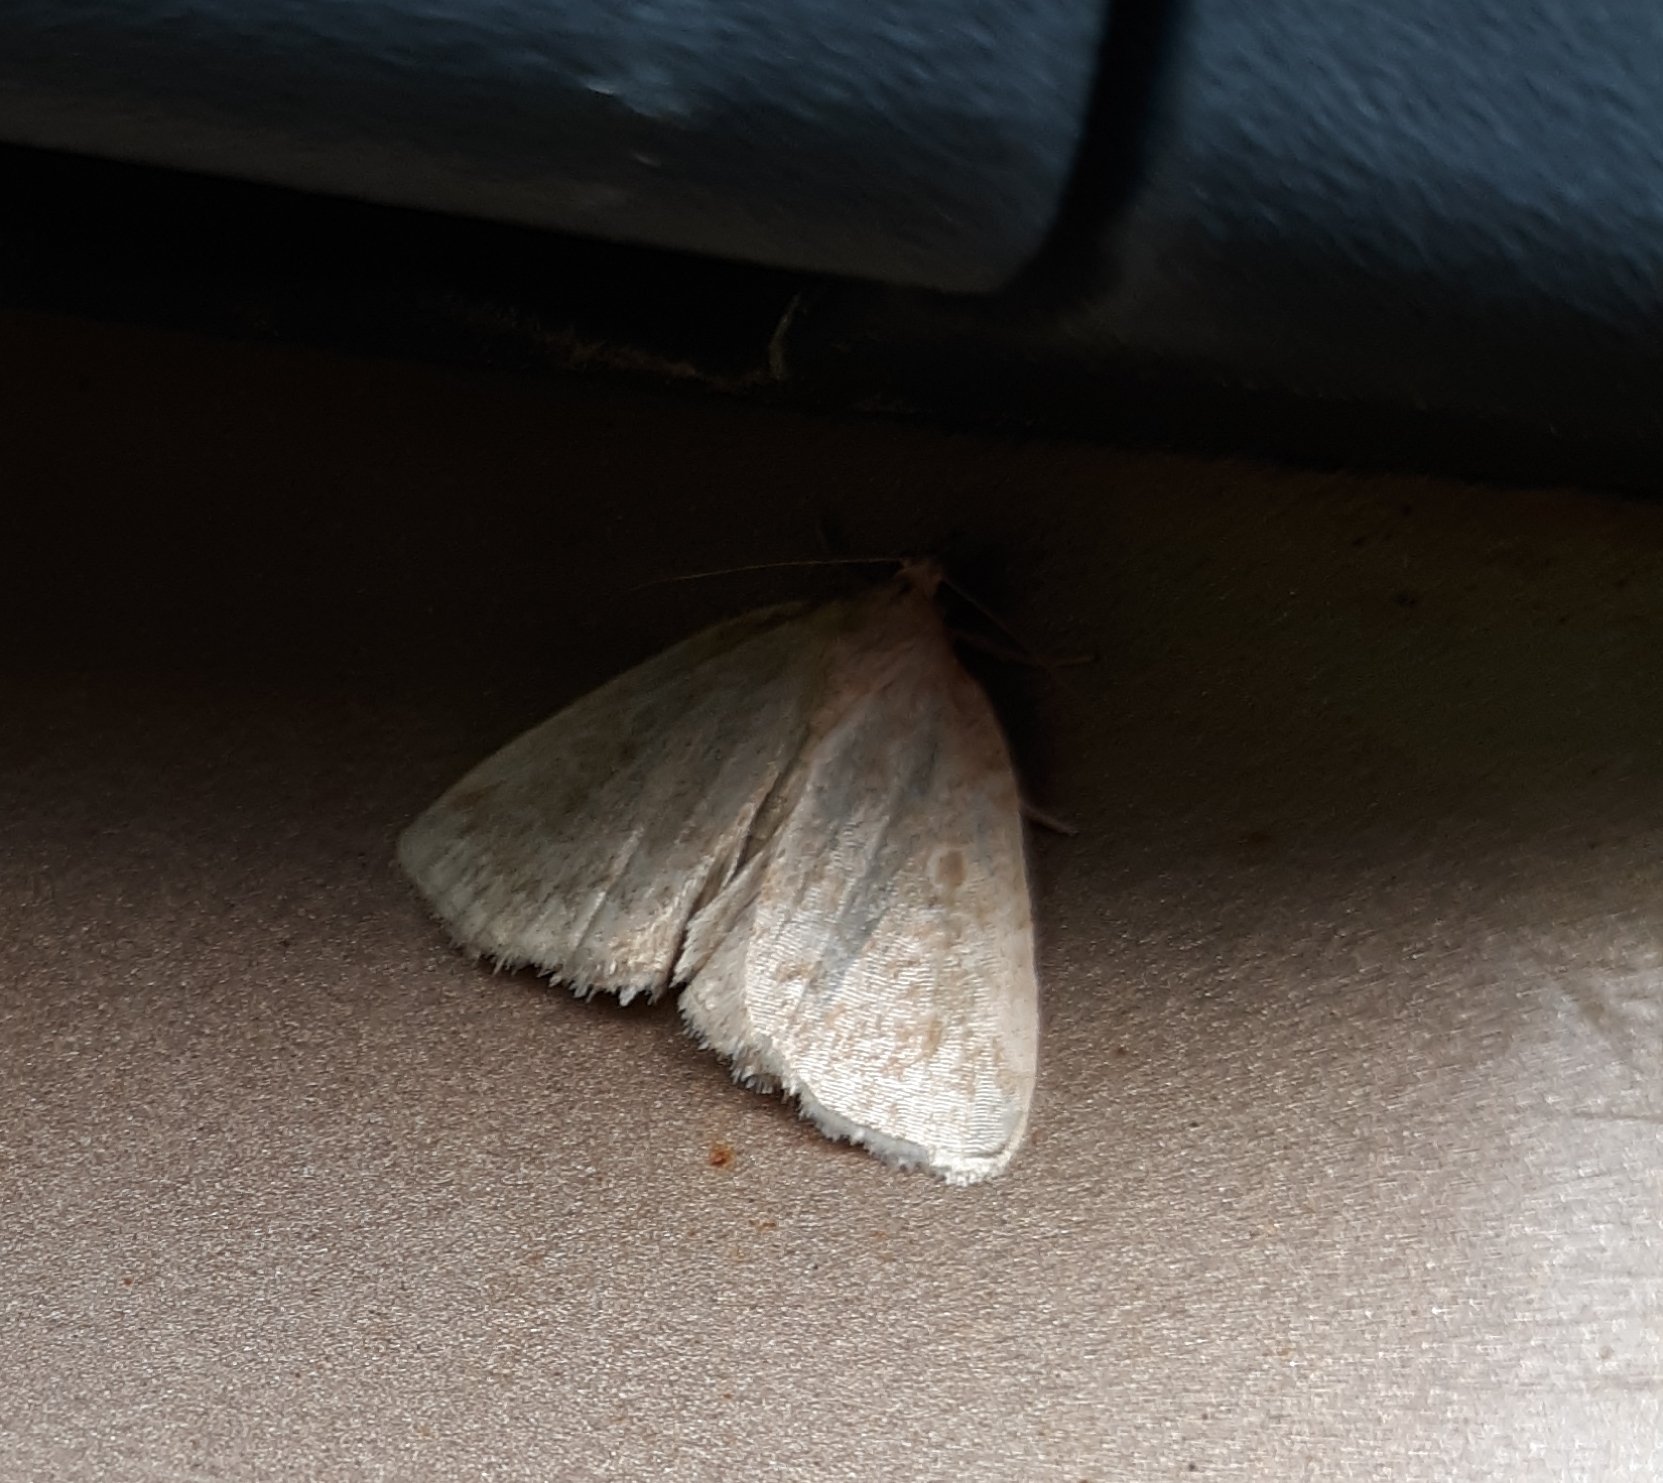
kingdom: Animalia
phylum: Arthropoda
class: Insecta
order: Lepidoptera
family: Noctuidae
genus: Protodeltote
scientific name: Protodeltote albidula
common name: Pale glyph
